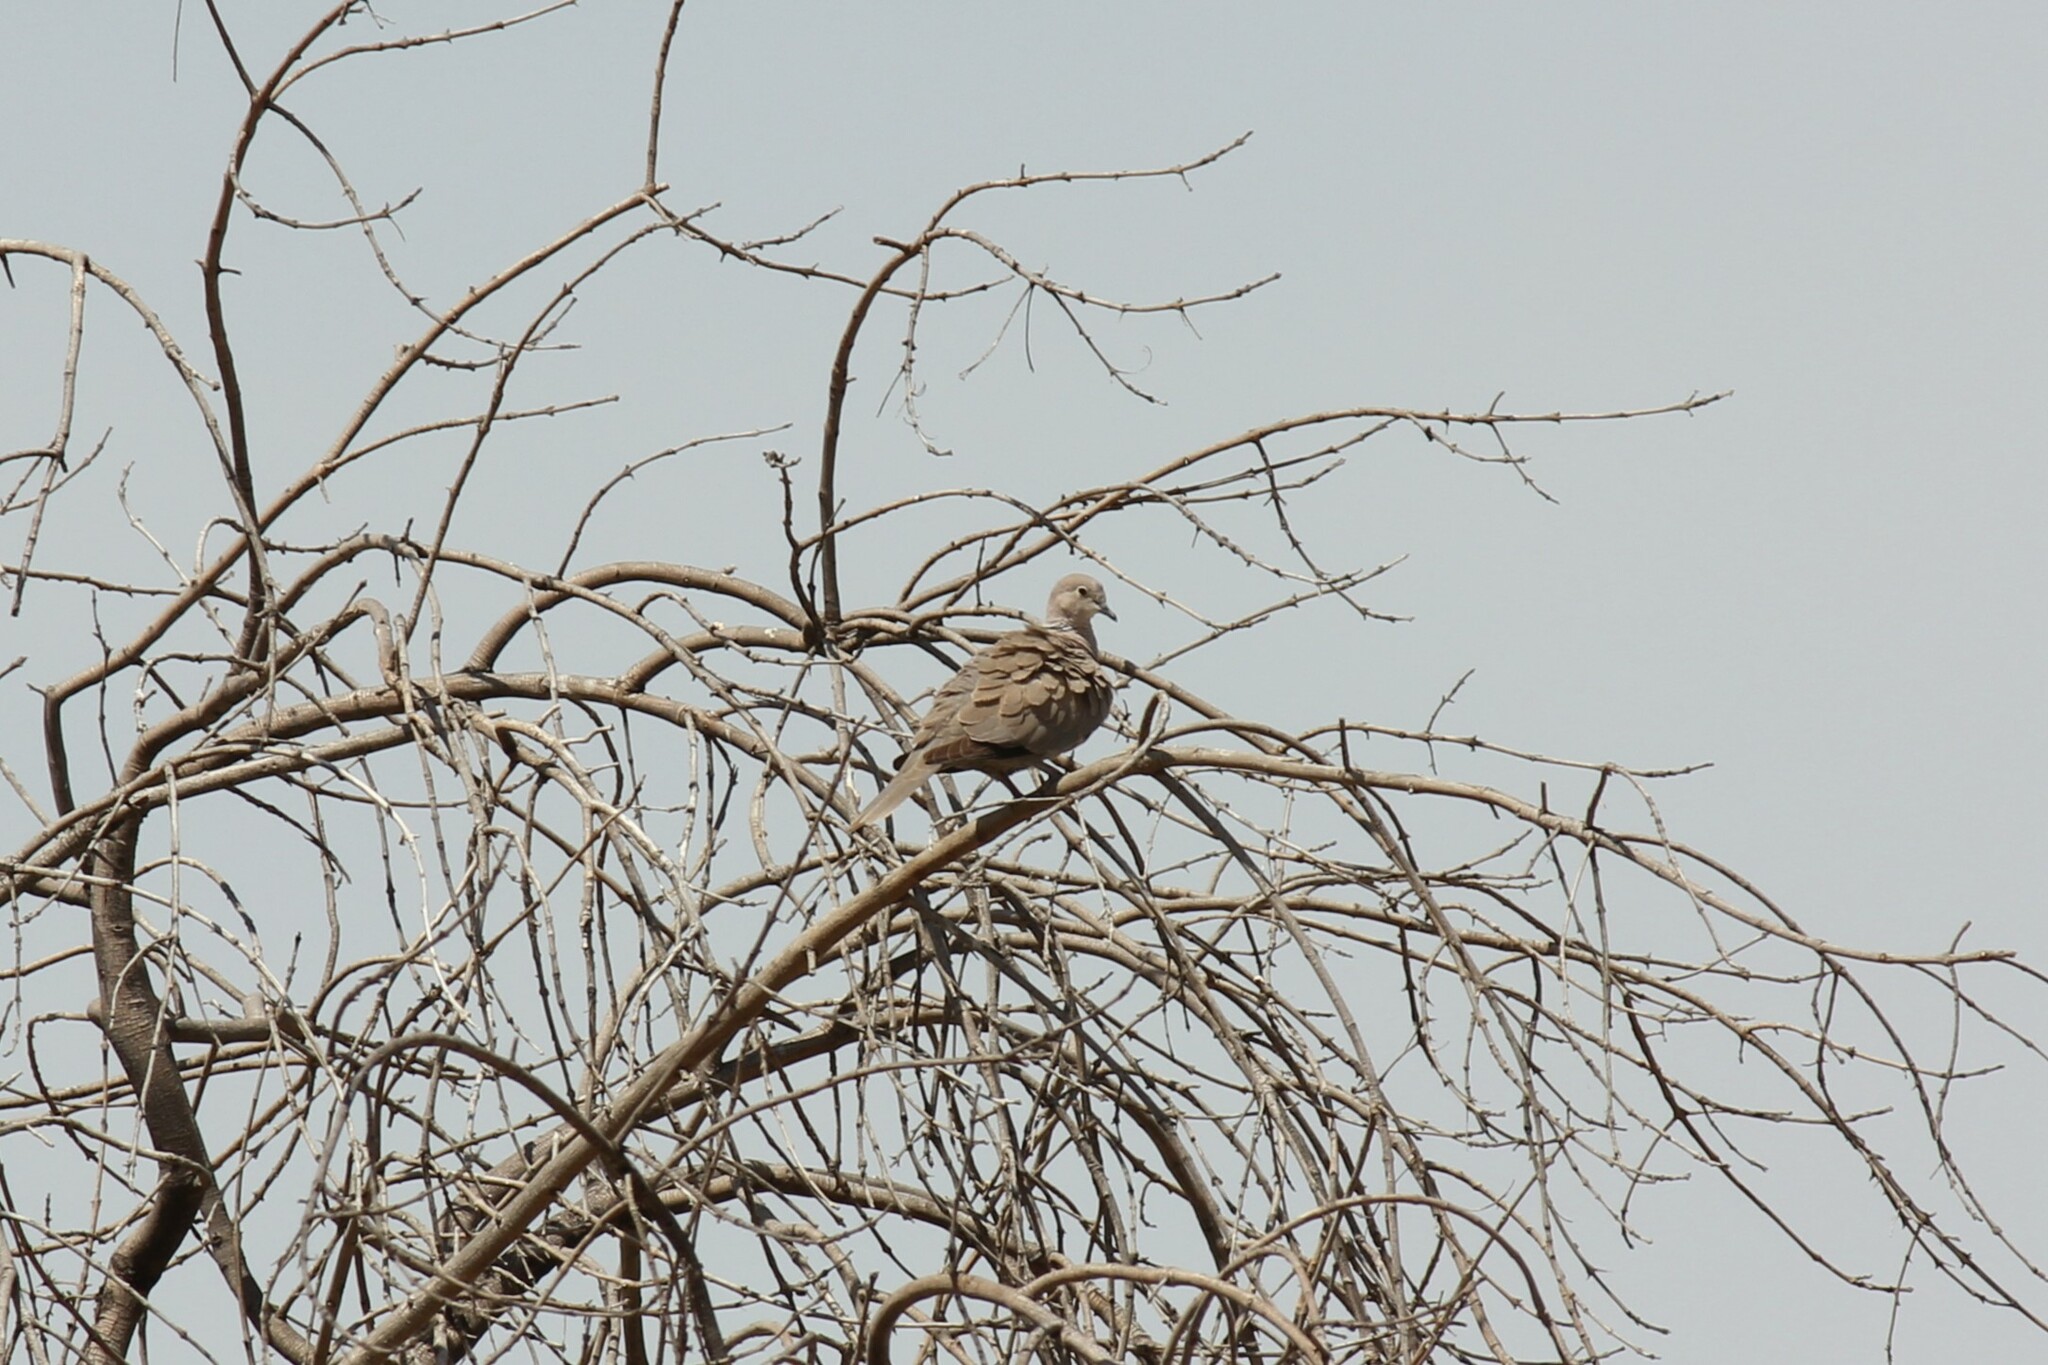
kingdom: Animalia
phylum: Chordata
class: Aves
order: Columbiformes
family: Columbidae
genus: Streptopelia
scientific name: Streptopelia decaocto
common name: Eurasian collared dove
